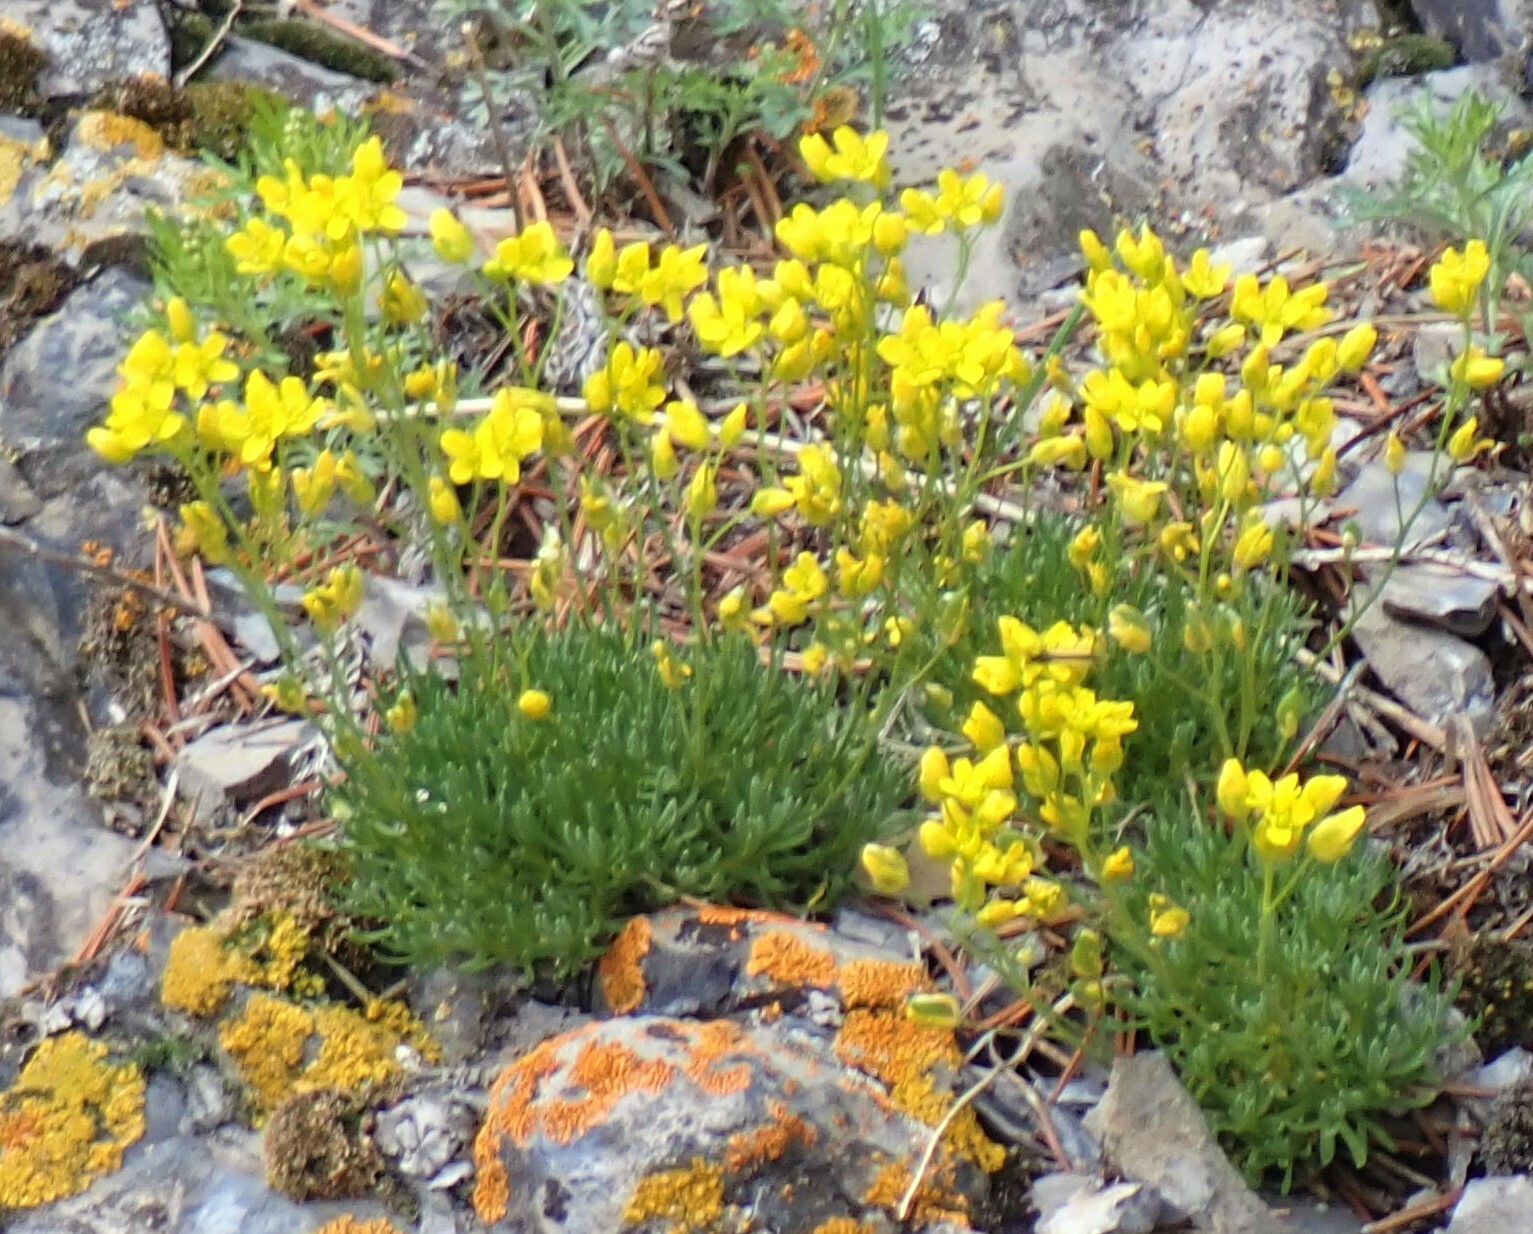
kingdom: Plantae
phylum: Tracheophyta
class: Magnoliopsida
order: Brassicales
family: Brassicaceae
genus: Draba
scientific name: Draba oligosperma
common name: Few-seed draba
